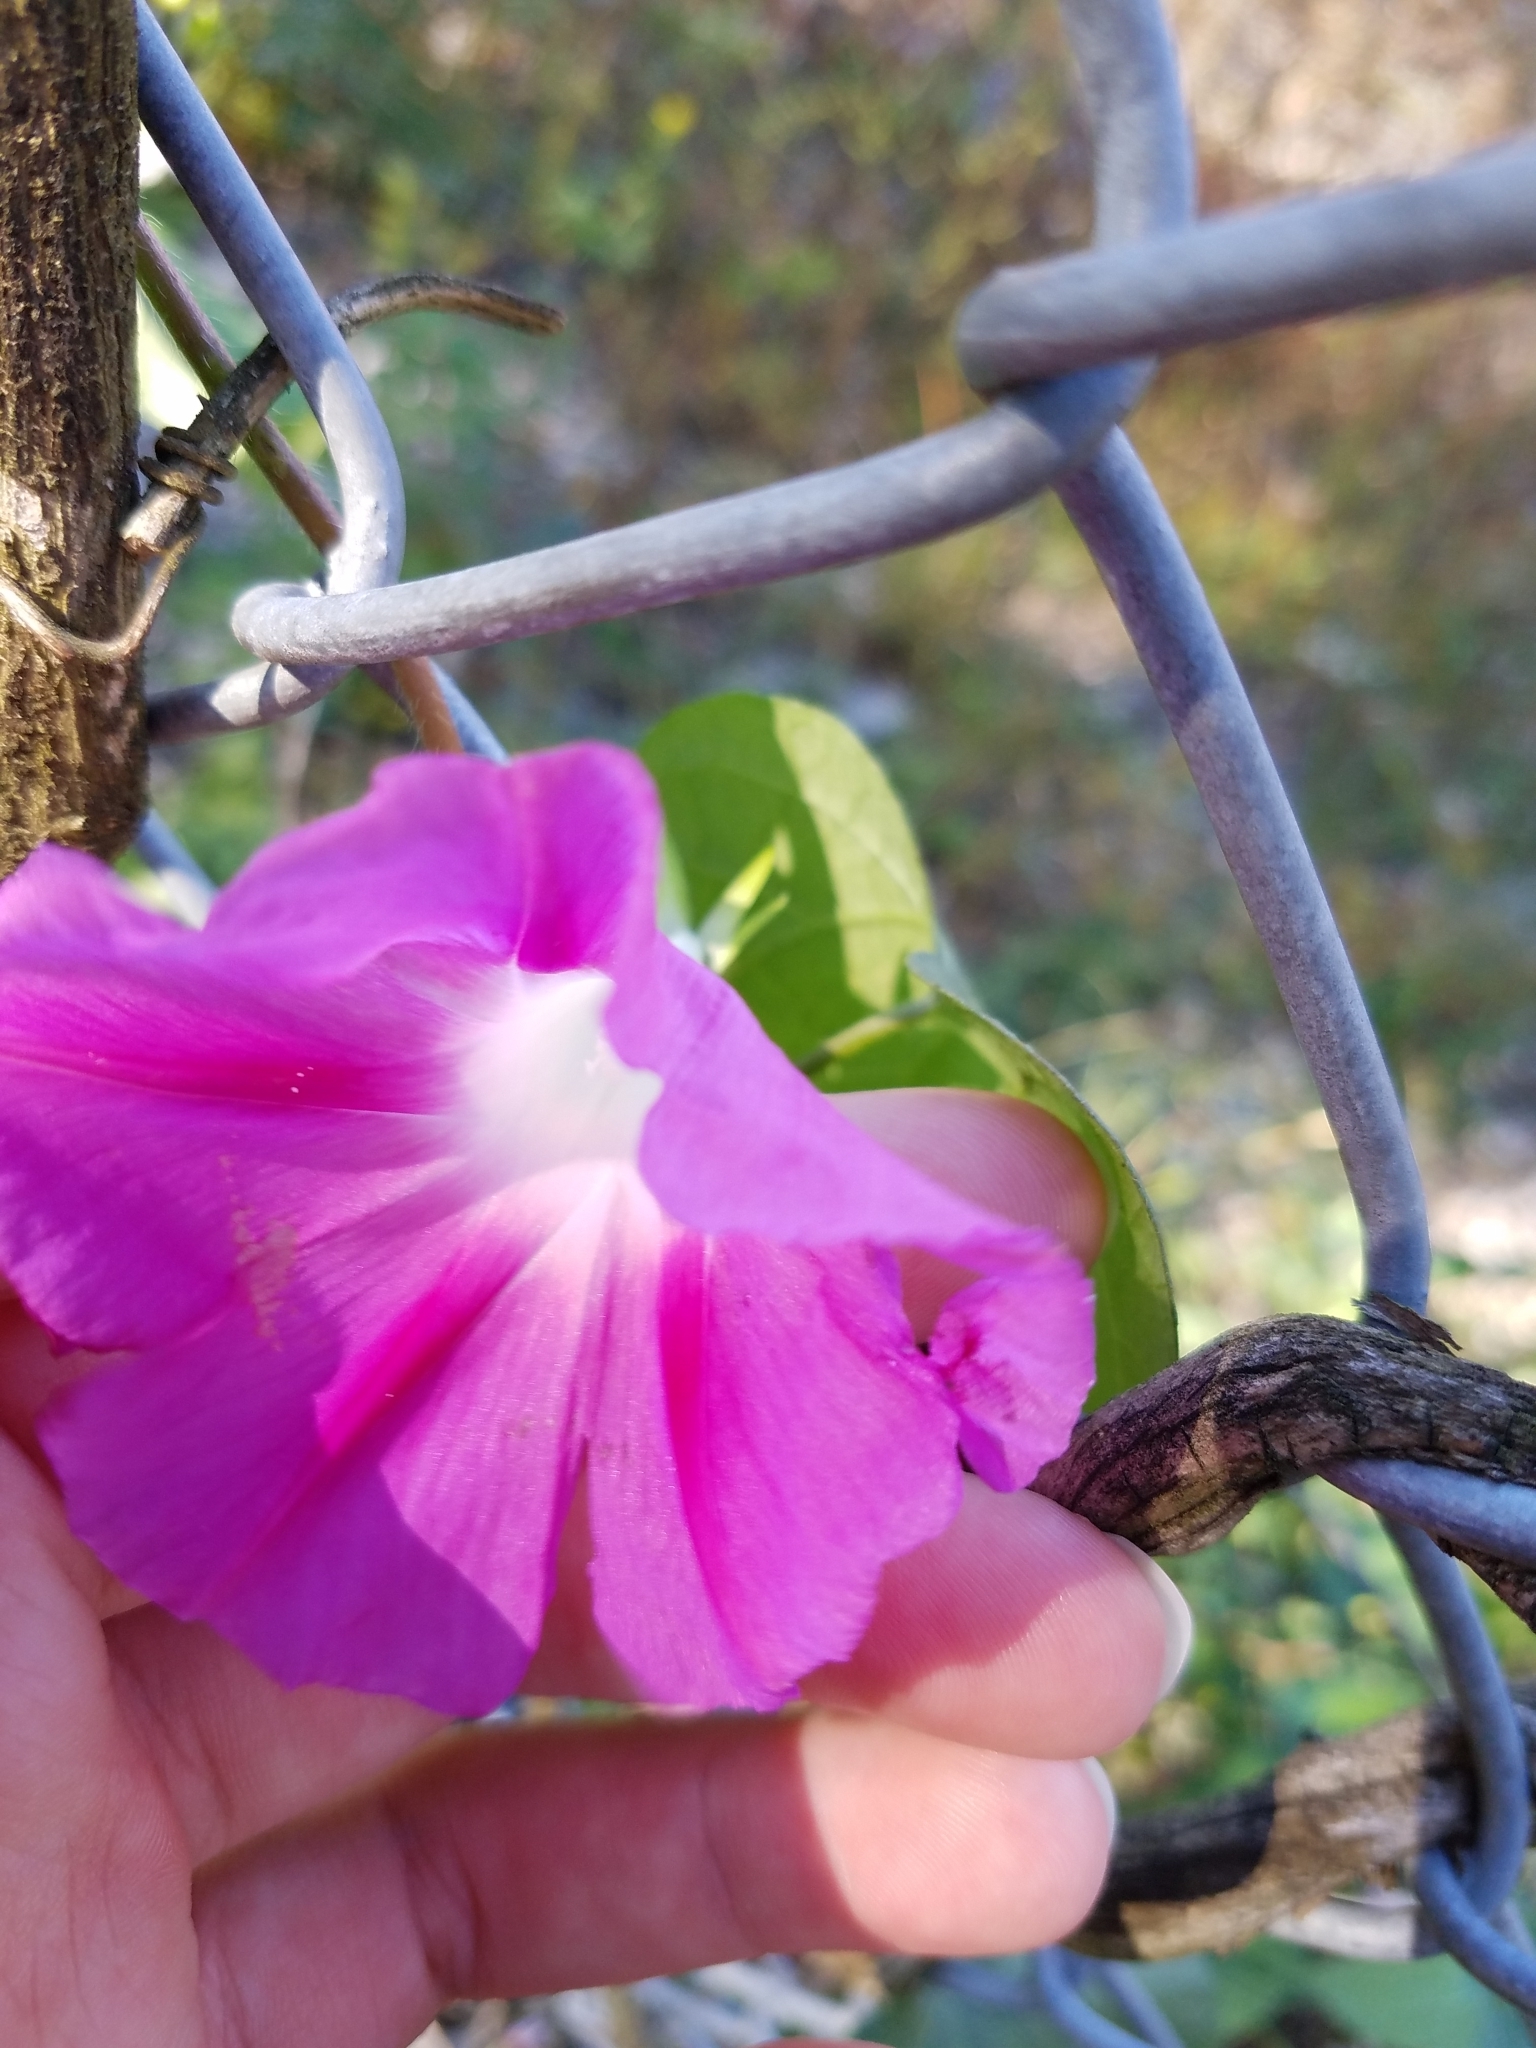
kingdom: Plantae
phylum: Tracheophyta
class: Magnoliopsida
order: Solanales
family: Convolvulaceae
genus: Ipomoea
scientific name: Ipomoea purpurea
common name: Common morning-glory
